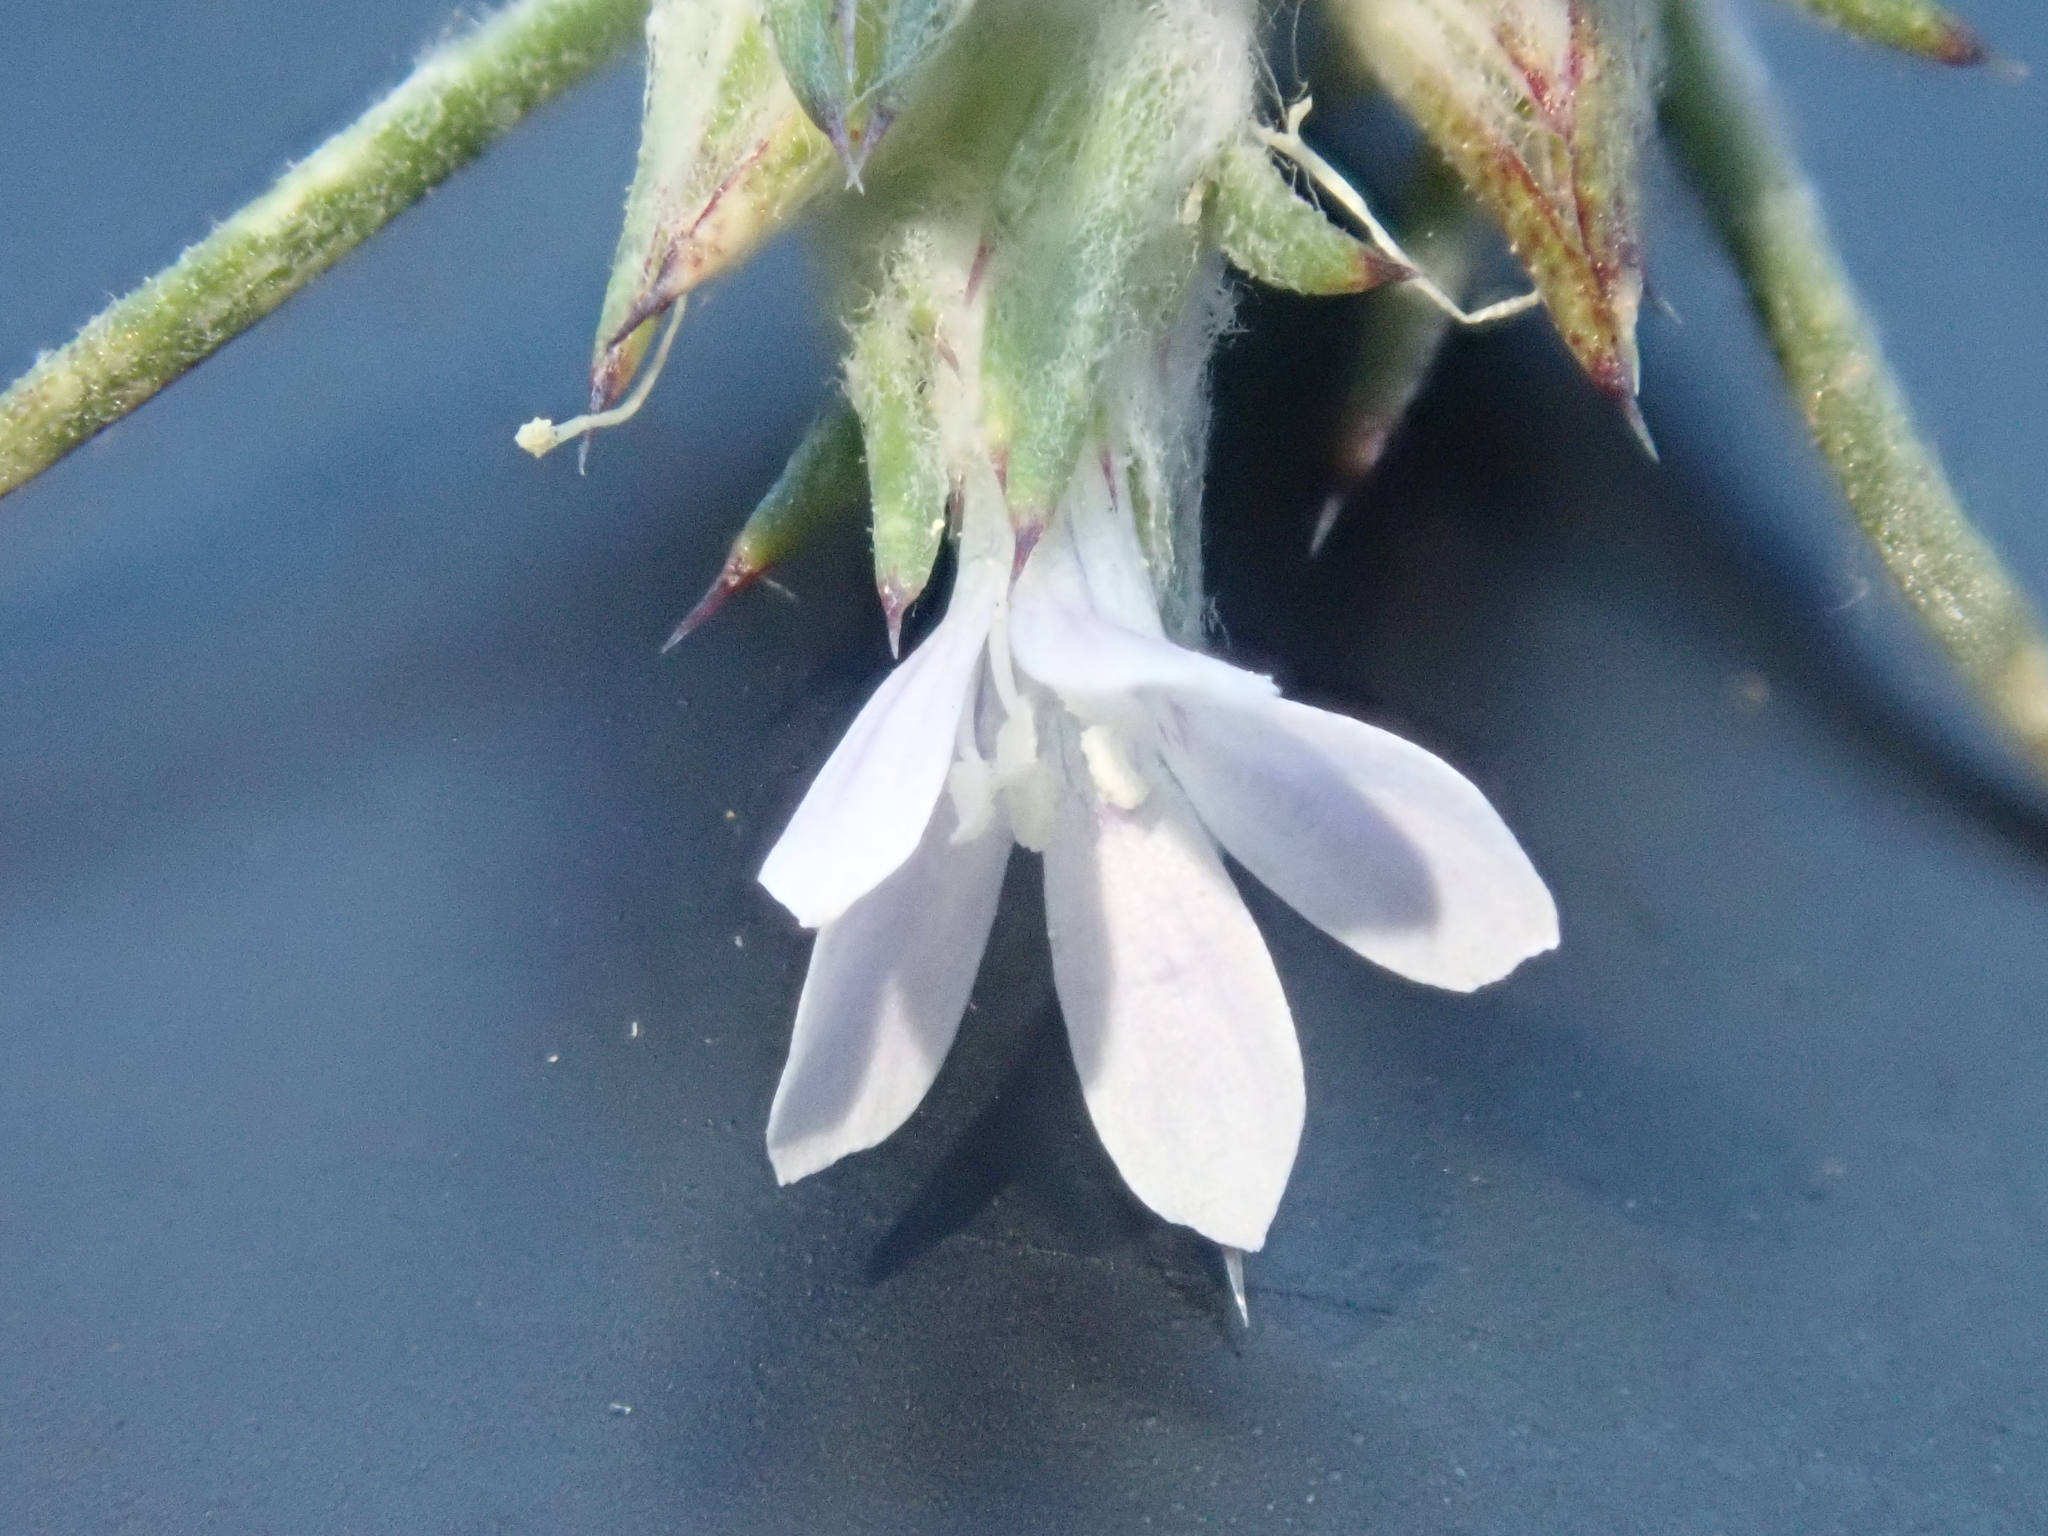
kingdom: Plantae
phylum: Tracheophyta
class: Magnoliopsida
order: Ericales
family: Polemoniaceae
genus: Eriastrum
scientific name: Eriastrum wilcoxii
